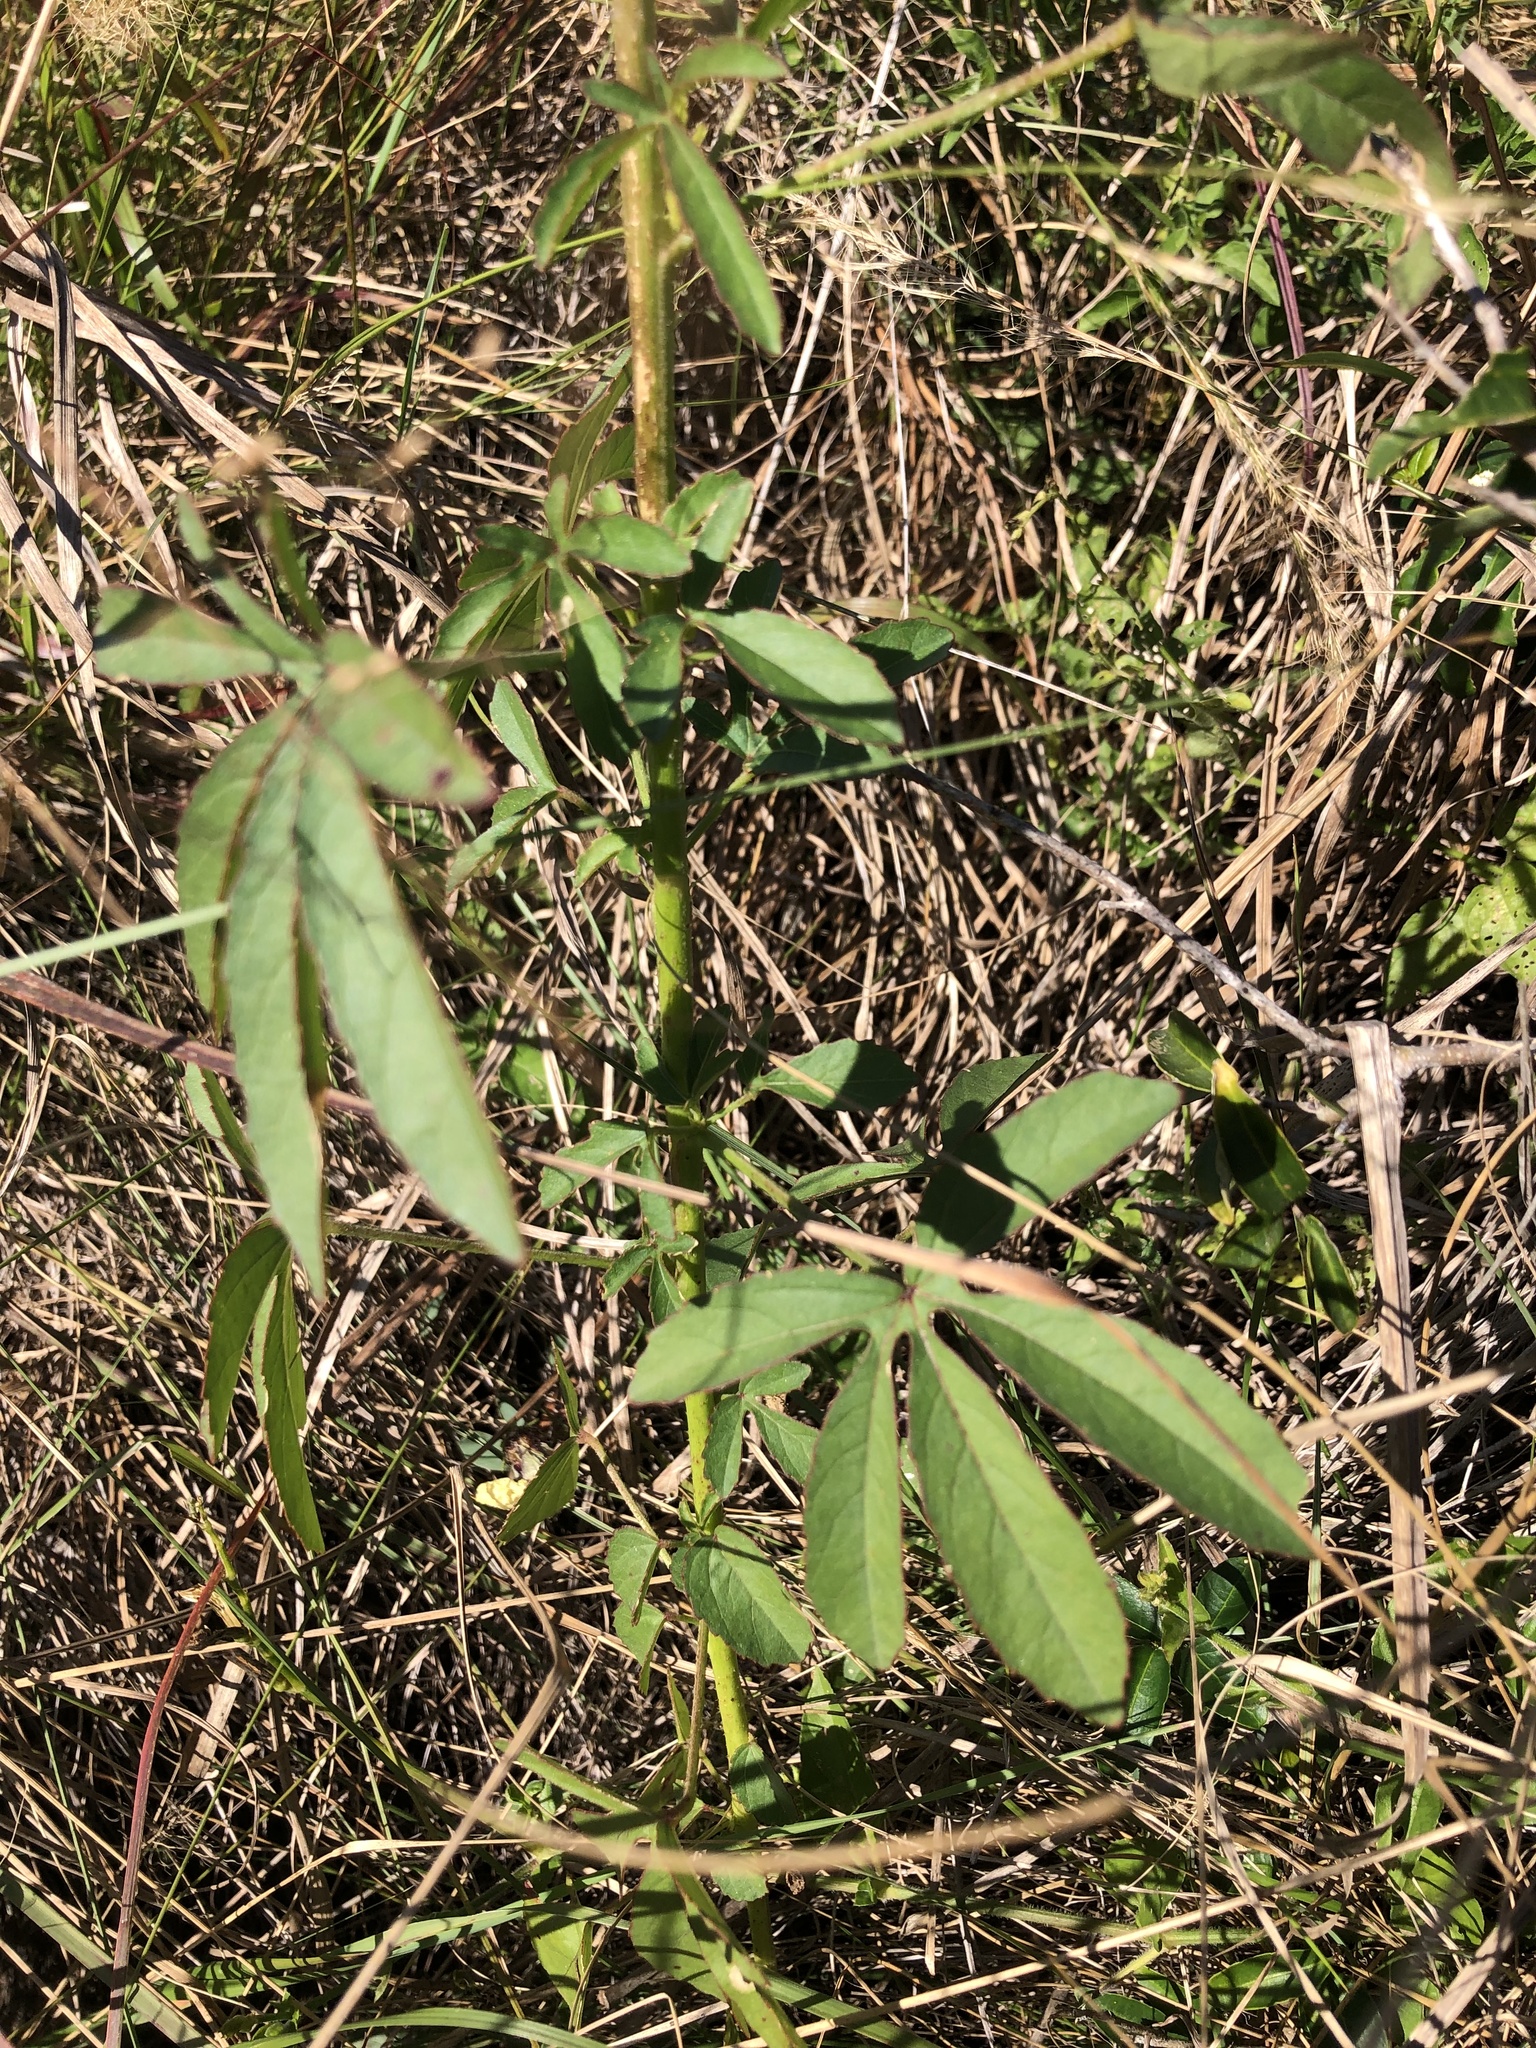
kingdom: Plantae
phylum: Tracheophyta
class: Magnoliopsida
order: Malvales
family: Malvaceae
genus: Hibiscus
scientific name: Hibiscus cannabinus
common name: Brown indianhemp
